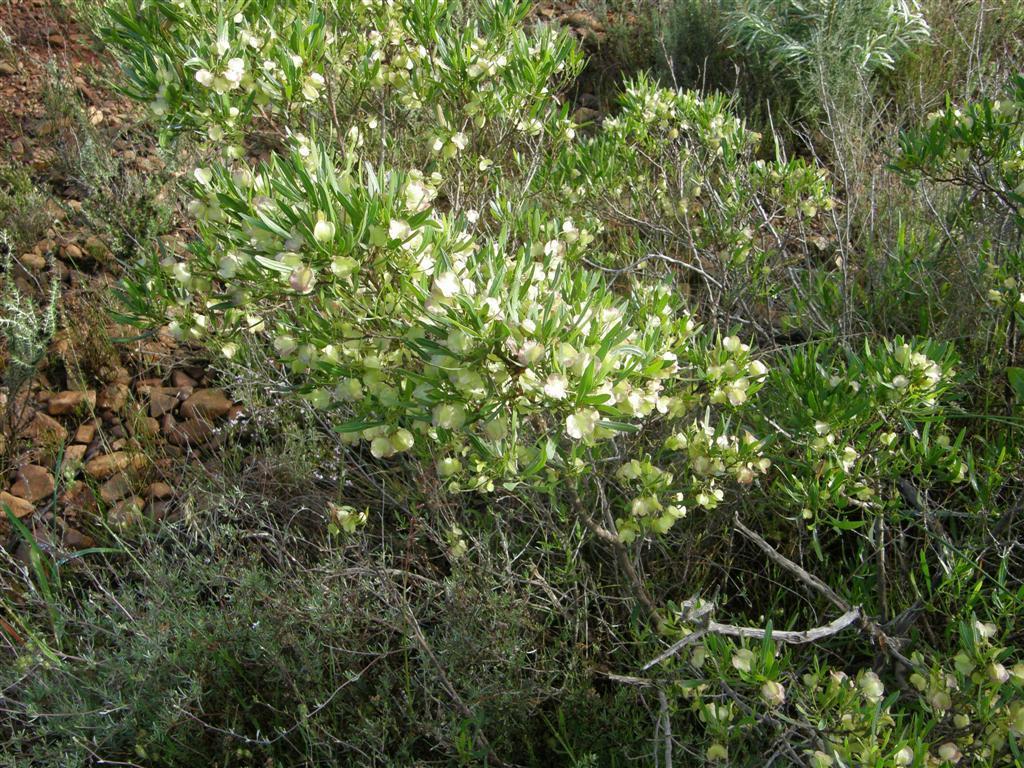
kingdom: Plantae
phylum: Tracheophyta
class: Magnoliopsida
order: Sapindales
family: Sapindaceae
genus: Dodonaea
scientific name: Dodonaea viscosa
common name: Hopbush
